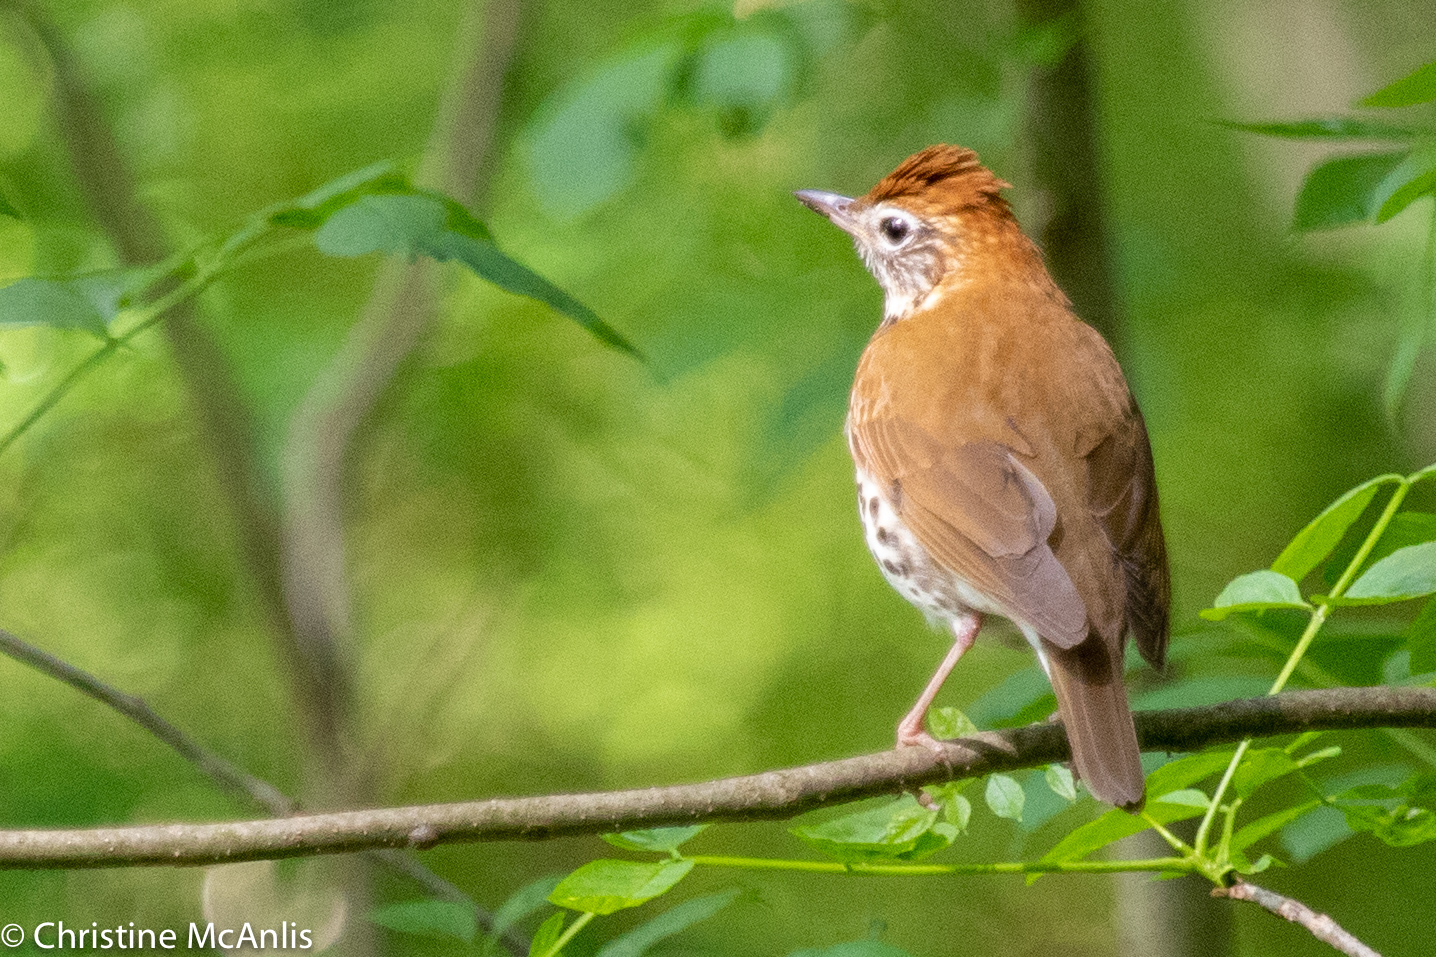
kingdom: Animalia
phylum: Chordata
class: Aves
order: Passeriformes
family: Turdidae
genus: Hylocichla
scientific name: Hylocichla mustelina
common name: Wood thrush
